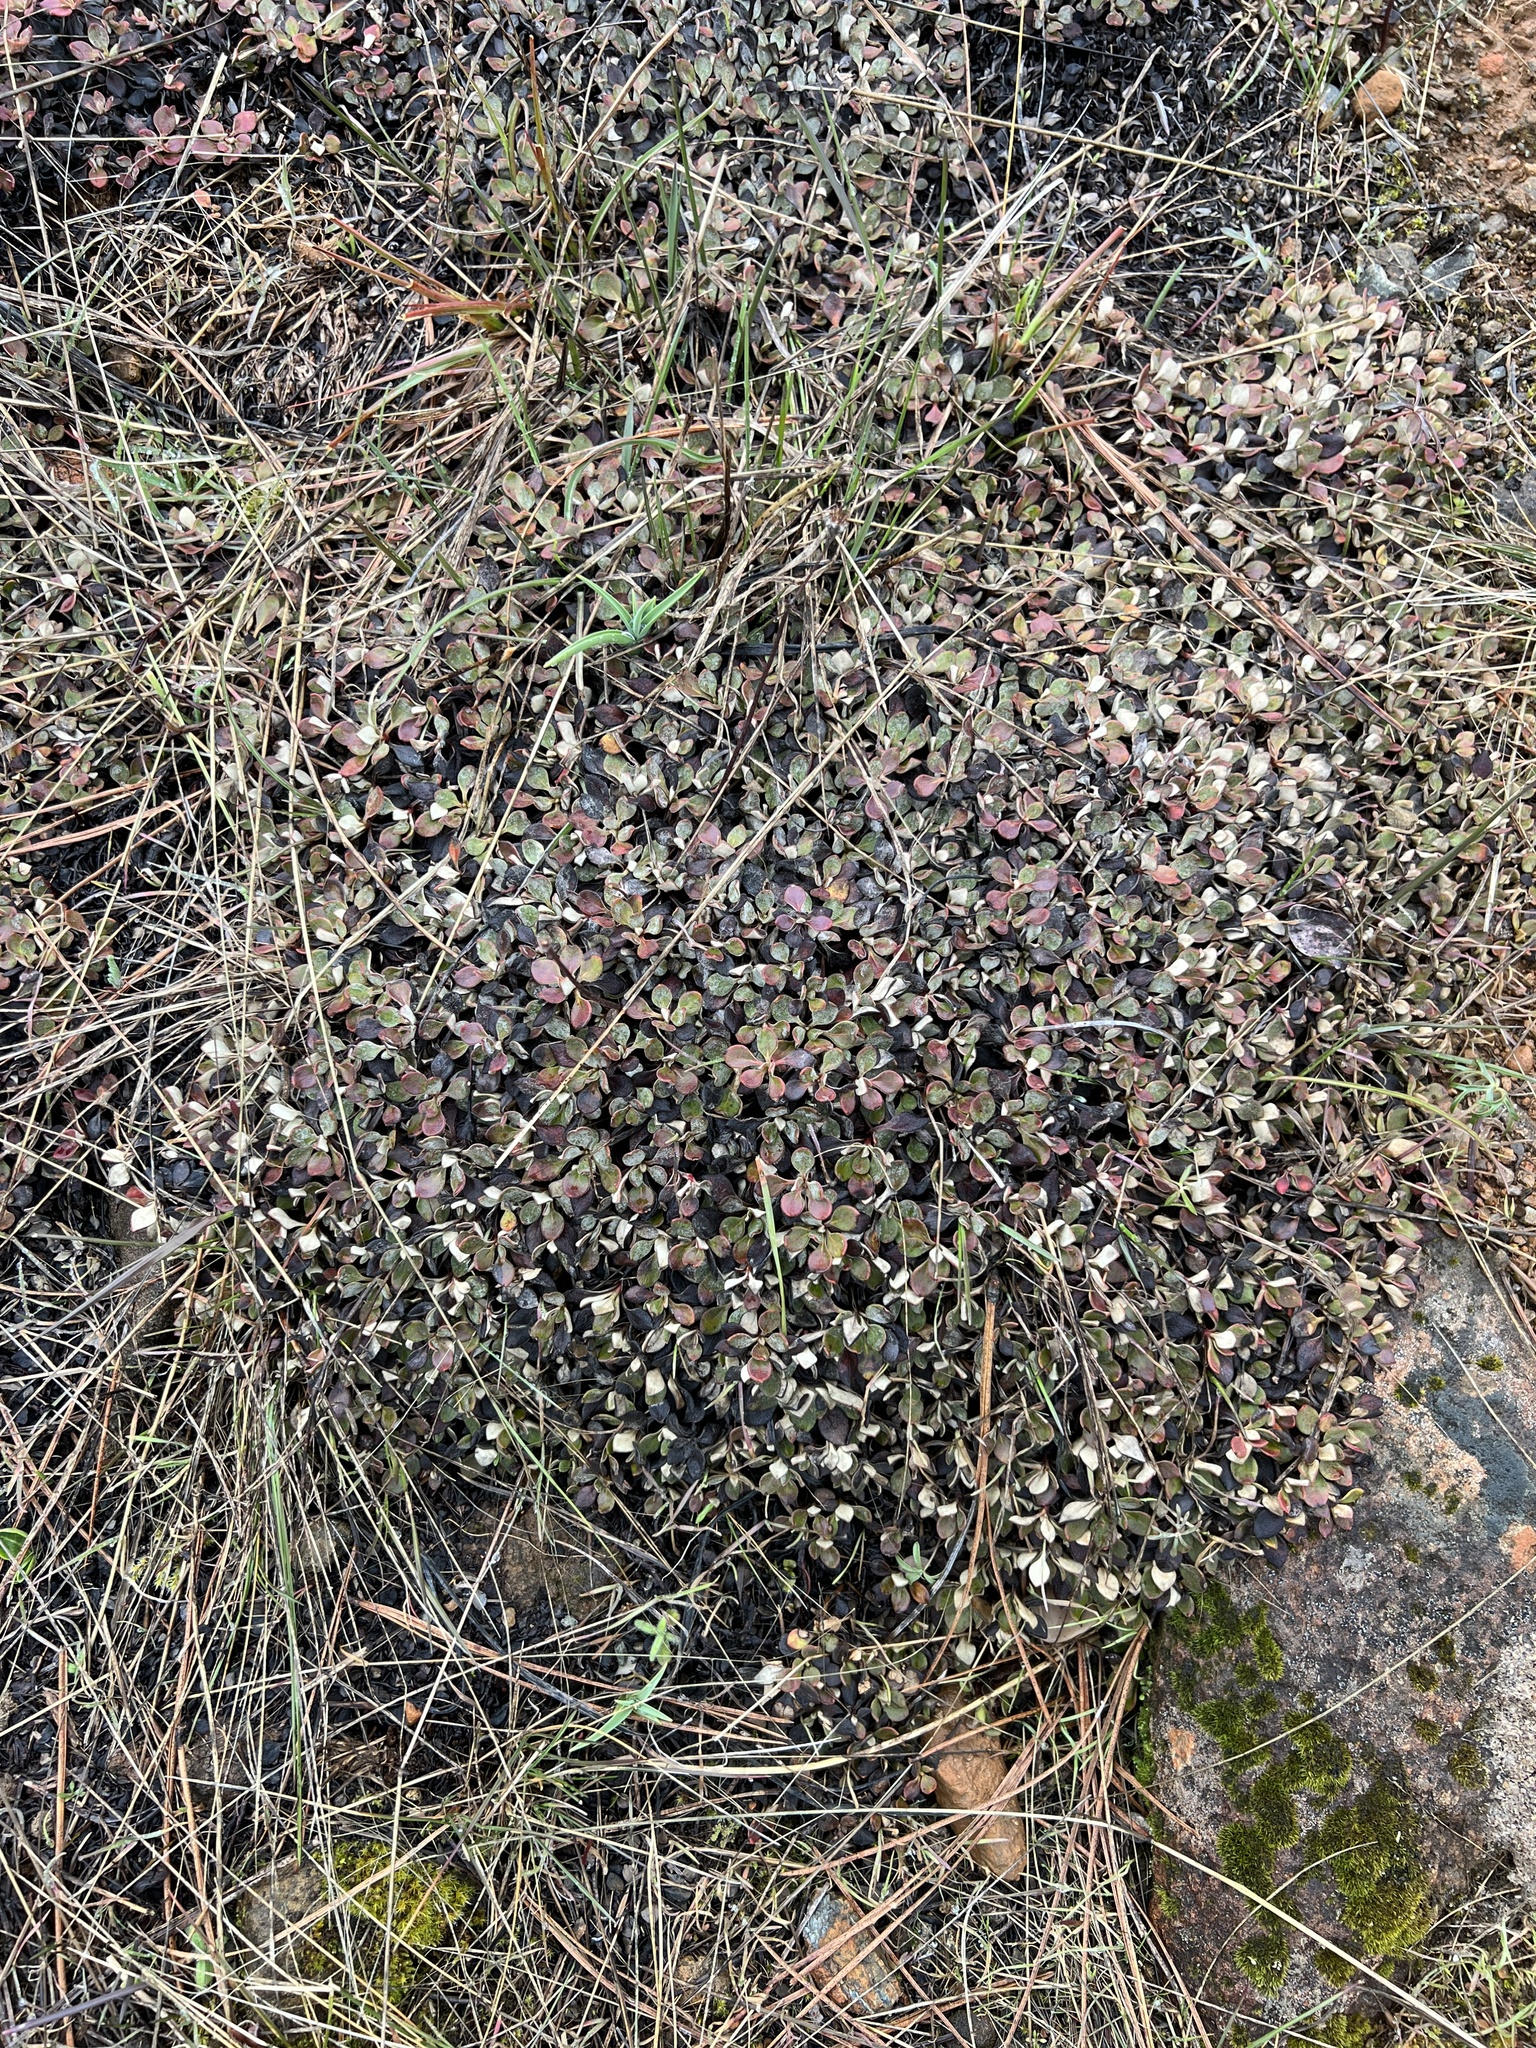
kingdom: Plantae
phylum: Tracheophyta
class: Magnoliopsida
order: Caryophyllales
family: Polygonaceae
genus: Eriogonum
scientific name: Eriogonum ternatum
